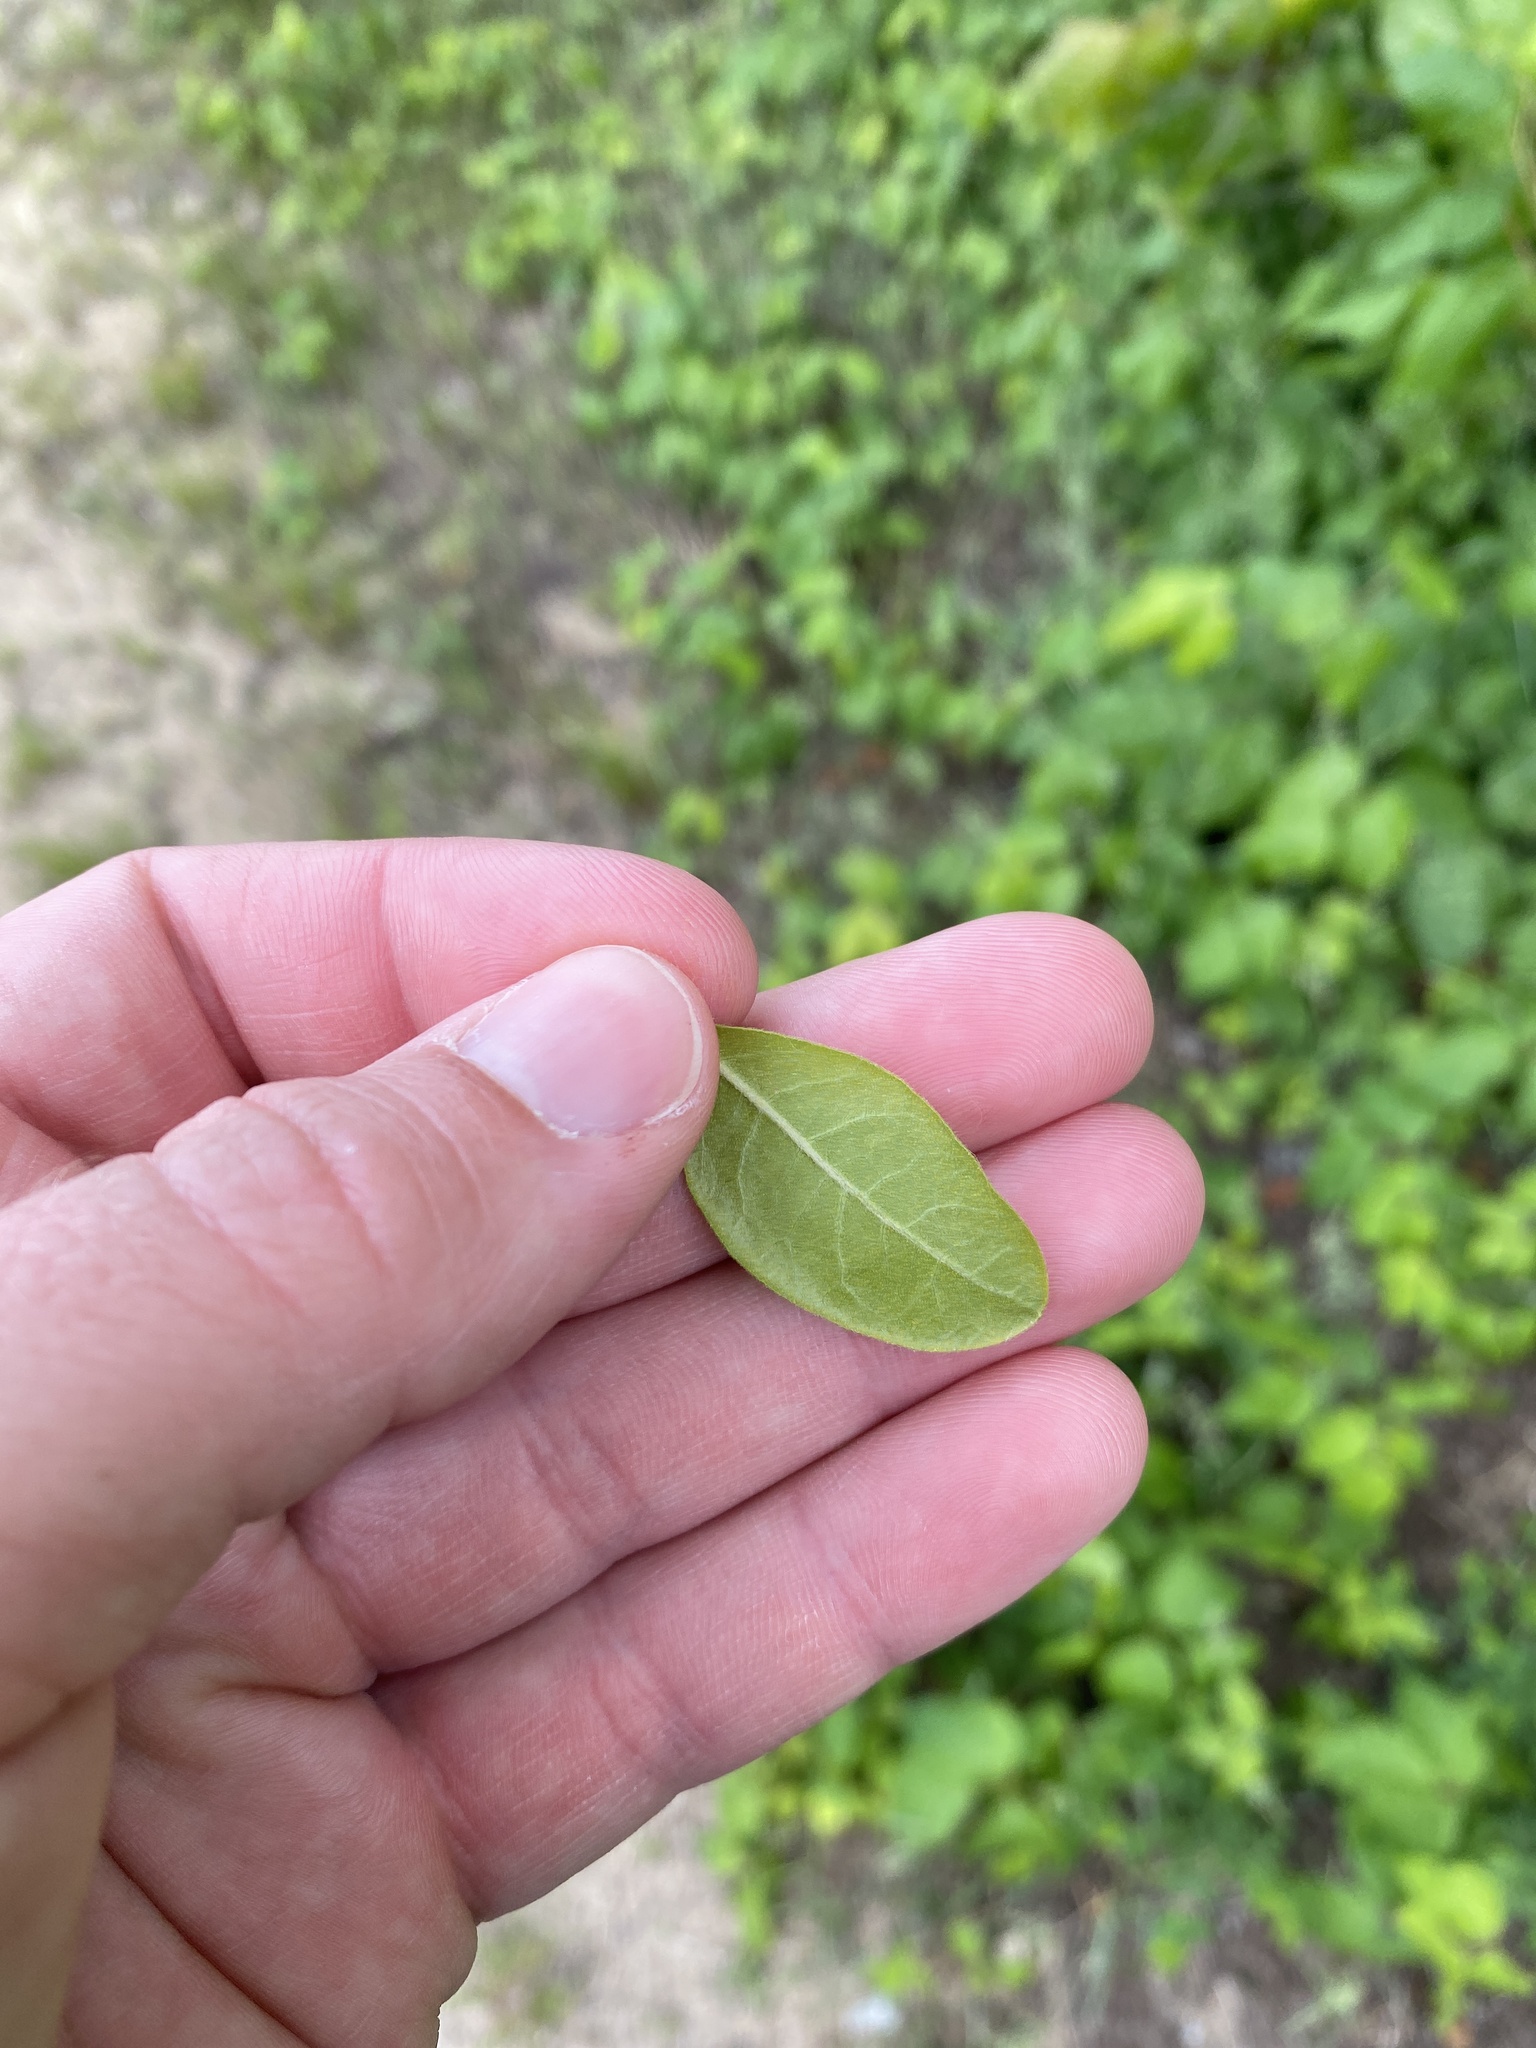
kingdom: Plantae
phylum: Tracheophyta
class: Magnoliopsida
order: Fagales
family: Myricaceae
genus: Morella
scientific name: Morella pensylvanica
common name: Northern bayberry
